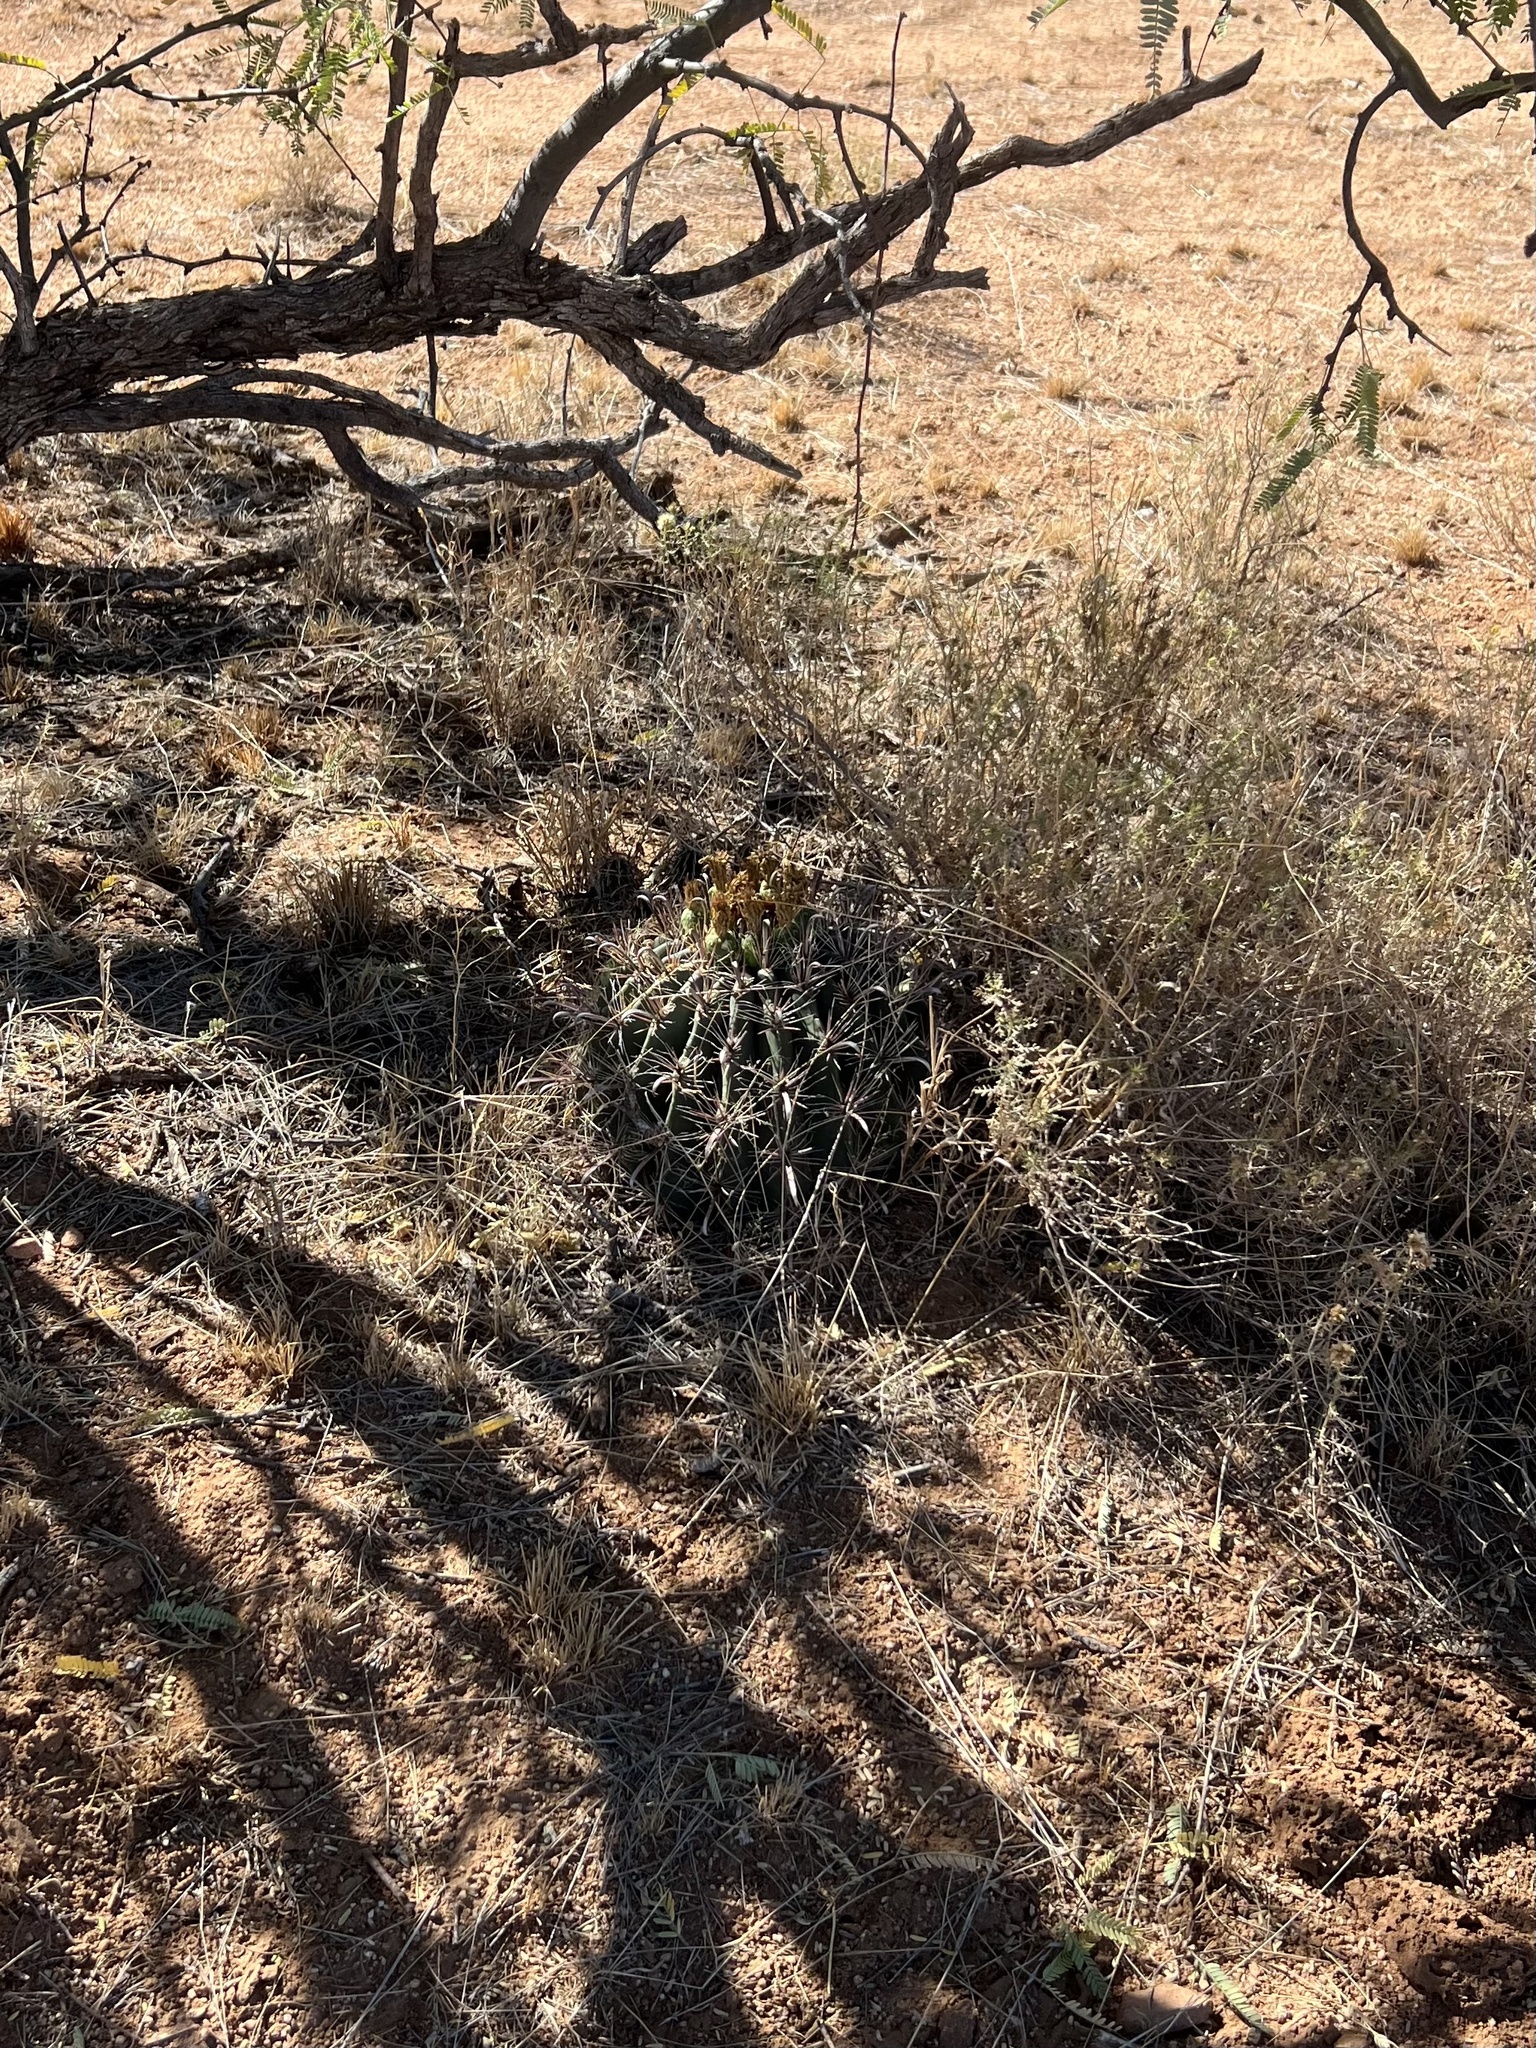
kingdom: Plantae
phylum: Tracheophyta
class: Magnoliopsida
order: Caryophyllales
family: Cactaceae
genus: Ferocactus
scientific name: Ferocactus wislizeni
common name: Candy barrel cactus
